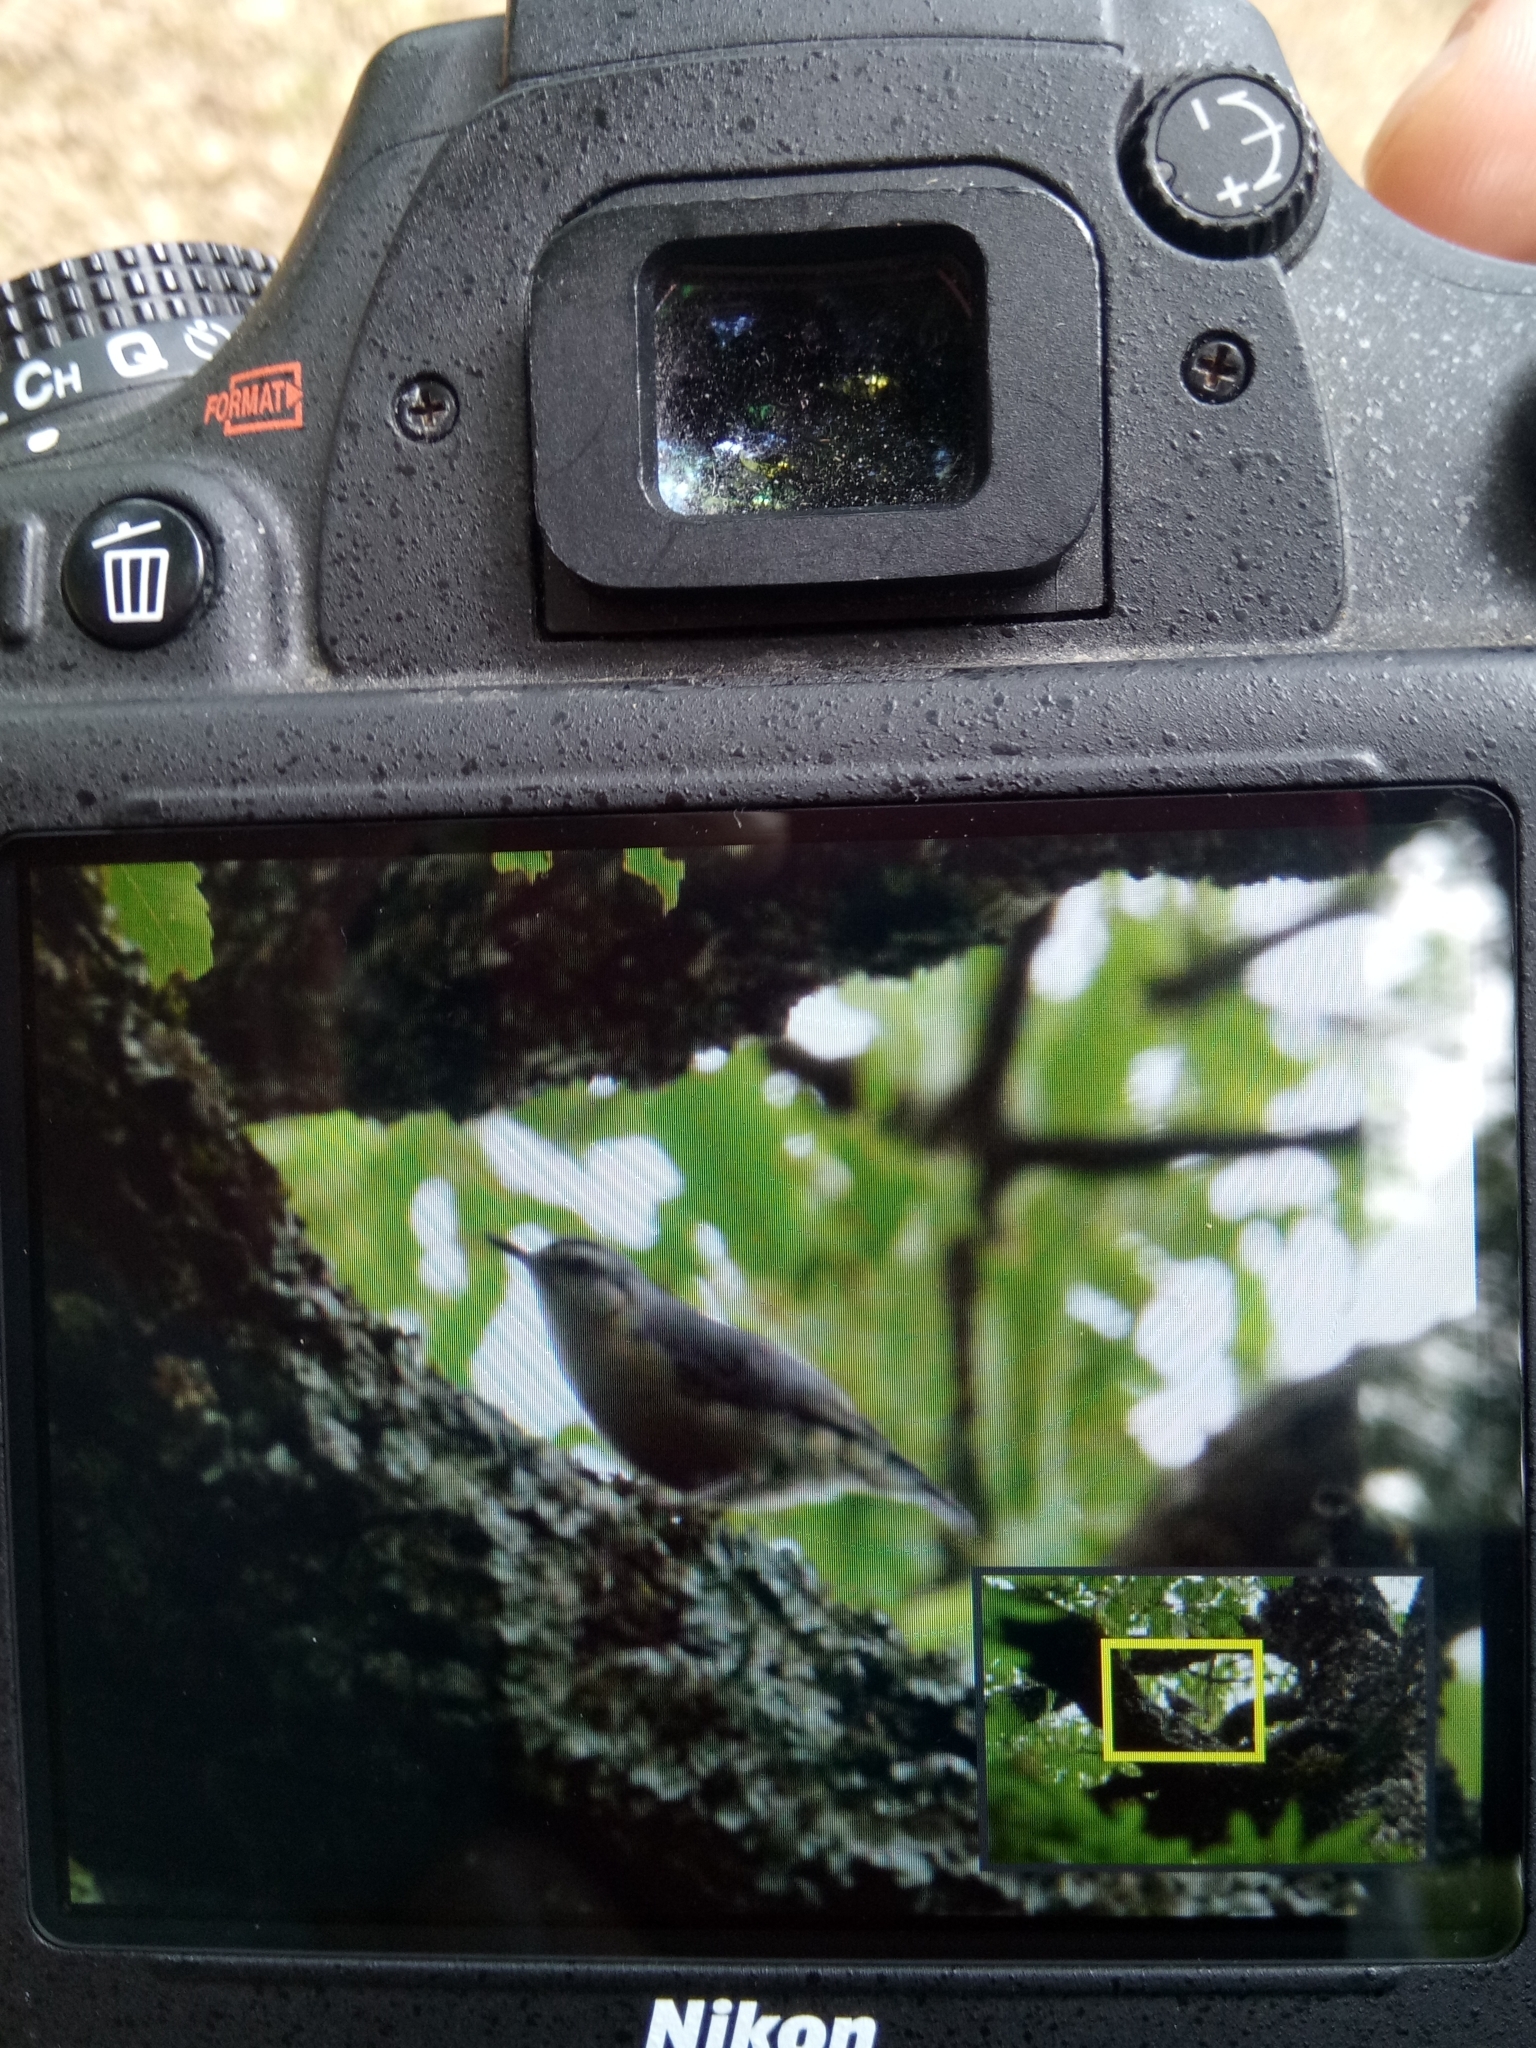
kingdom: Animalia
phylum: Chordata
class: Aves
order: Passeriformes
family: Sittidae
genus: Sitta
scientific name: Sitta ledanti
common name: Algerian nuthatch
